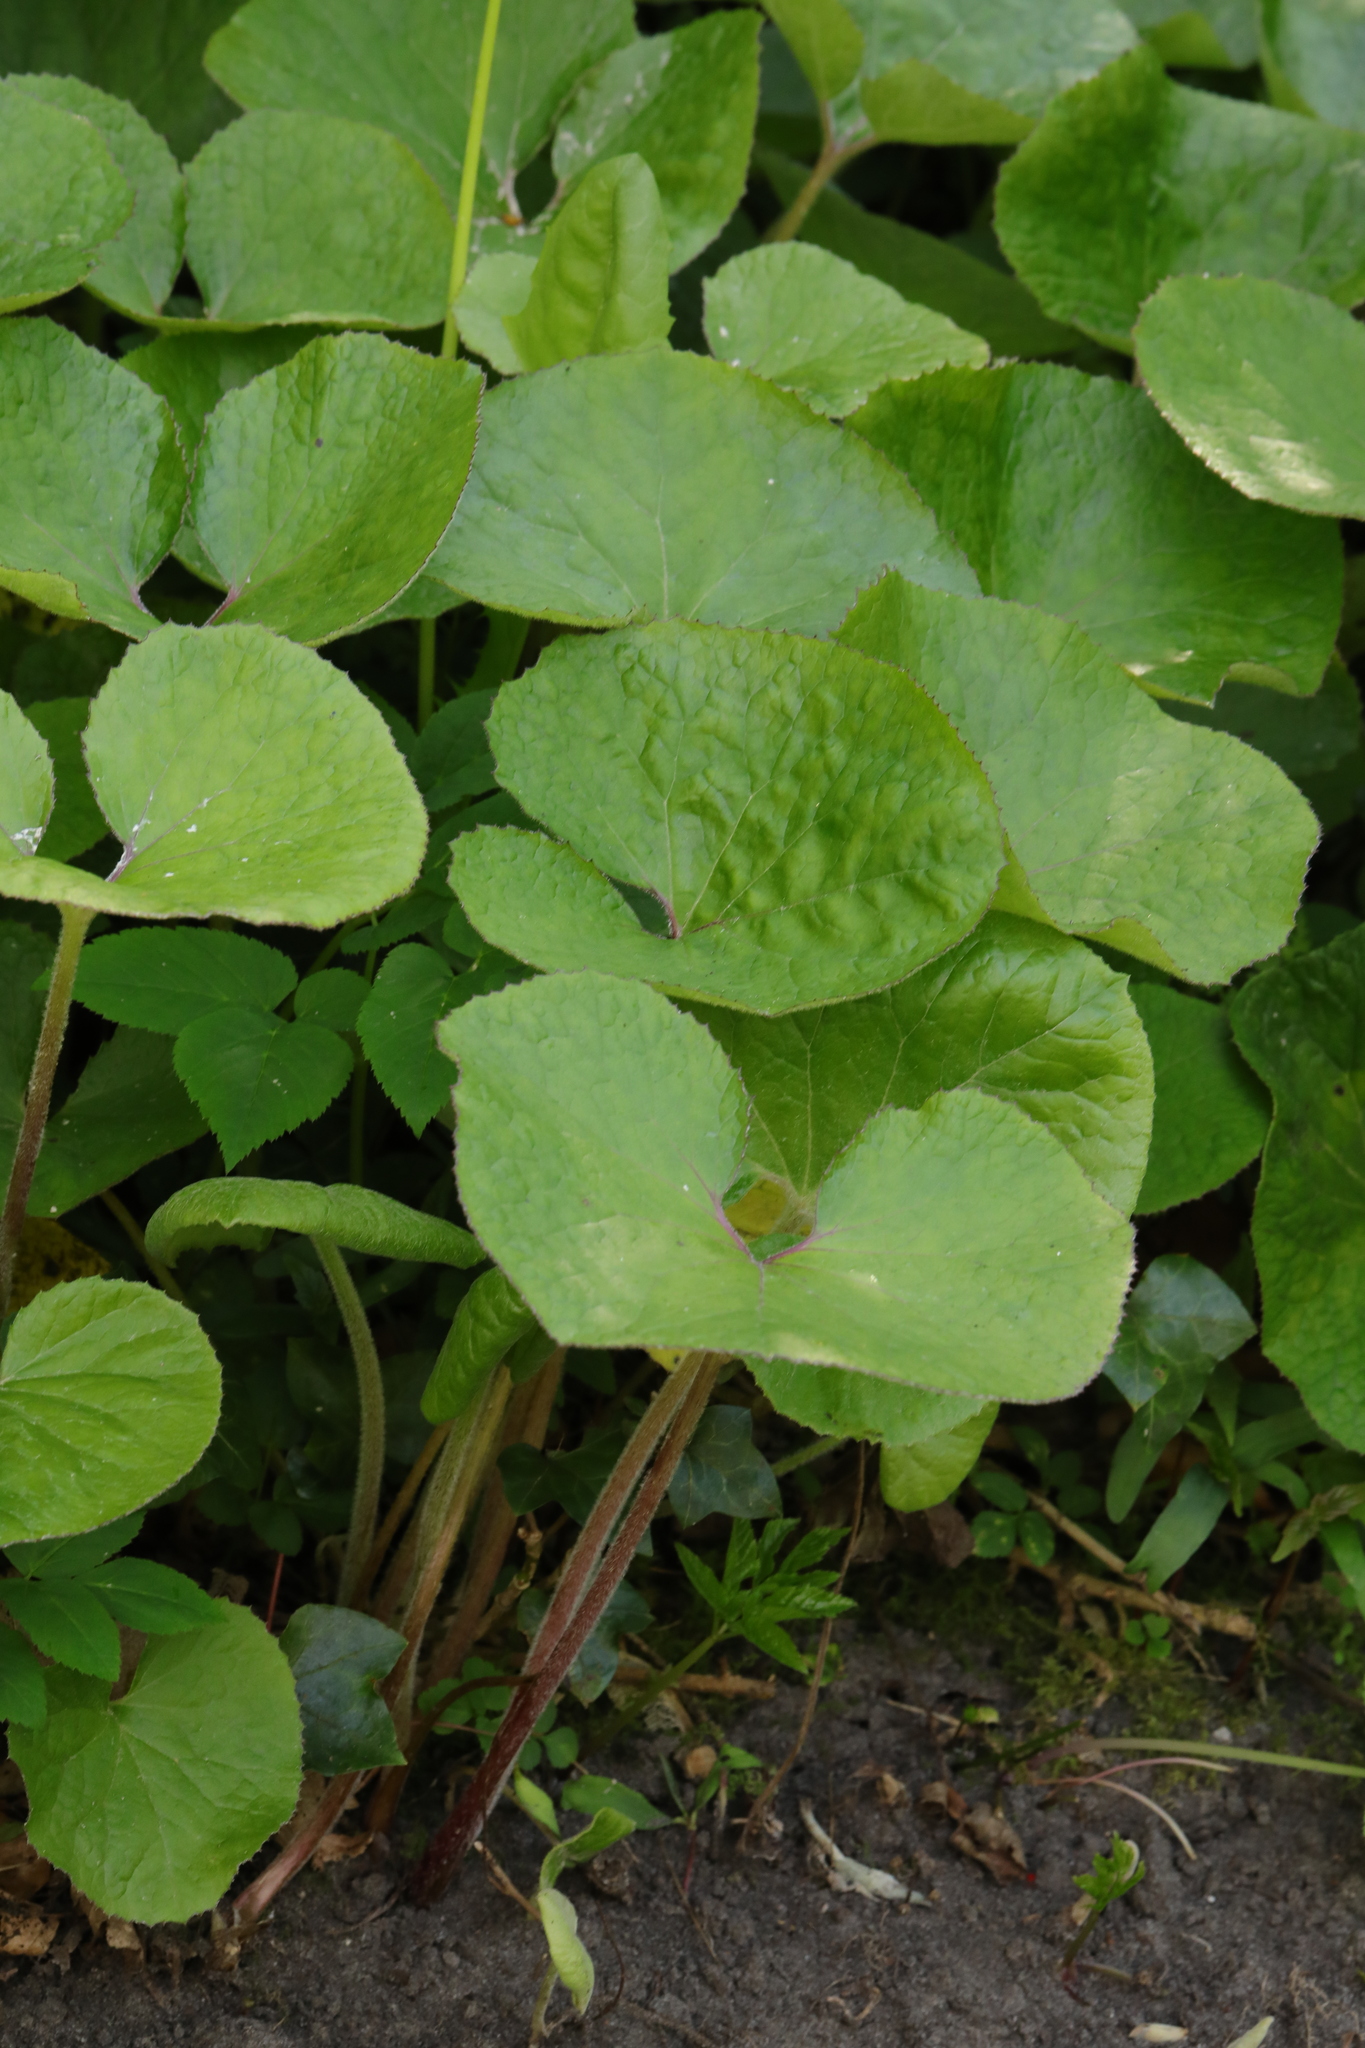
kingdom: Plantae
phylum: Tracheophyta
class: Magnoliopsida
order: Asterales
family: Asteraceae
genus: Petasites
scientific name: Petasites pyrenaicus
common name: Winter heliotrope
